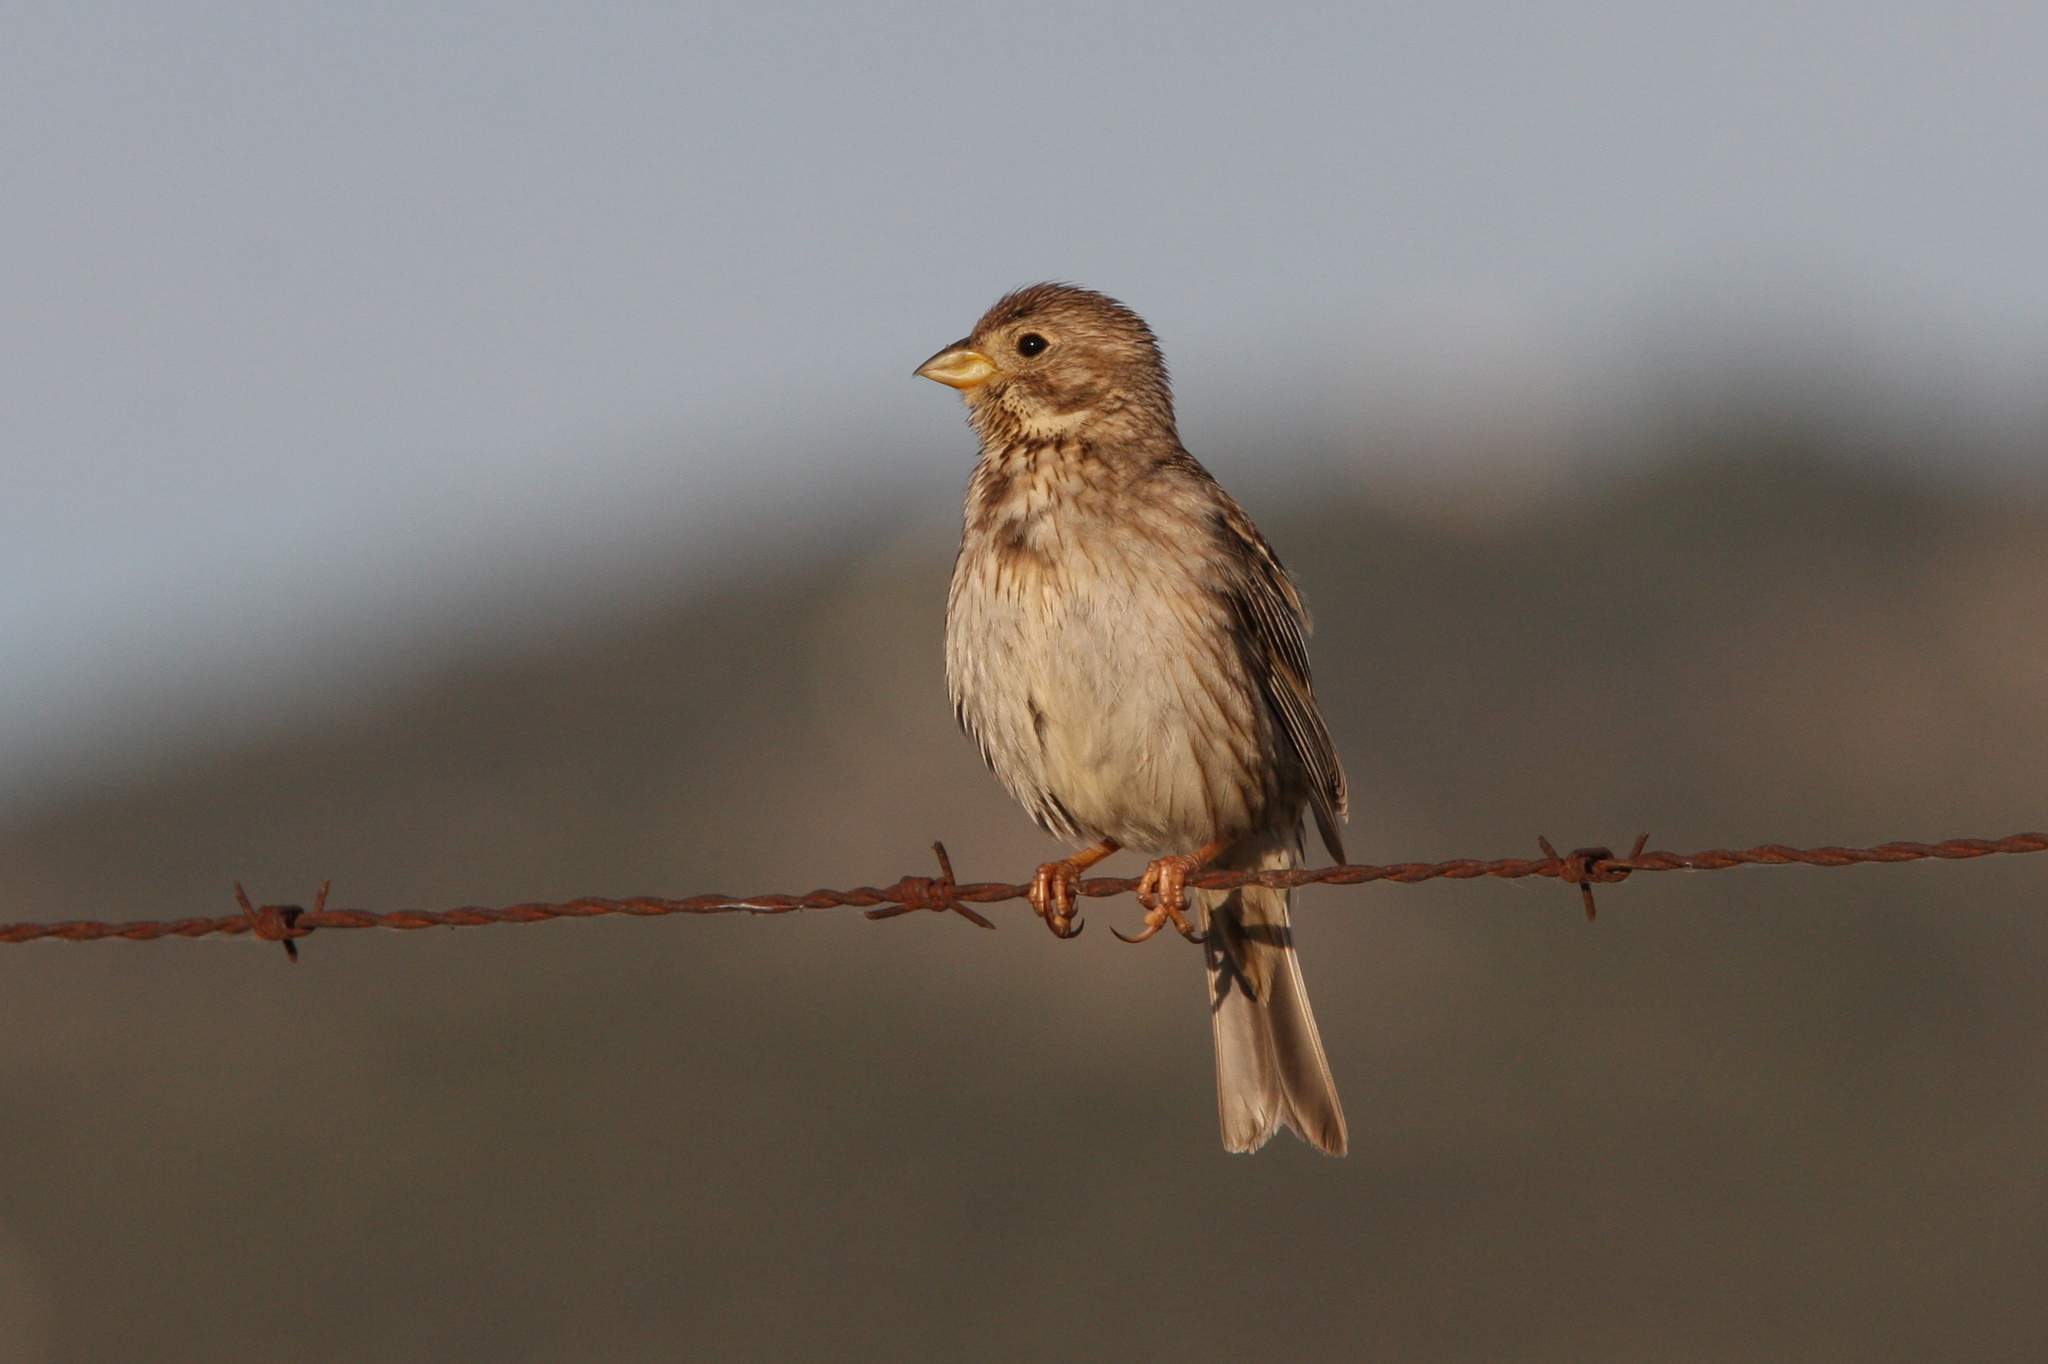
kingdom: Animalia
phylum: Chordata
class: Aves
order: Passeriformes
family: Emberizidae
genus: Emberiza
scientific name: Emberiza calandra
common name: Corn bunting
